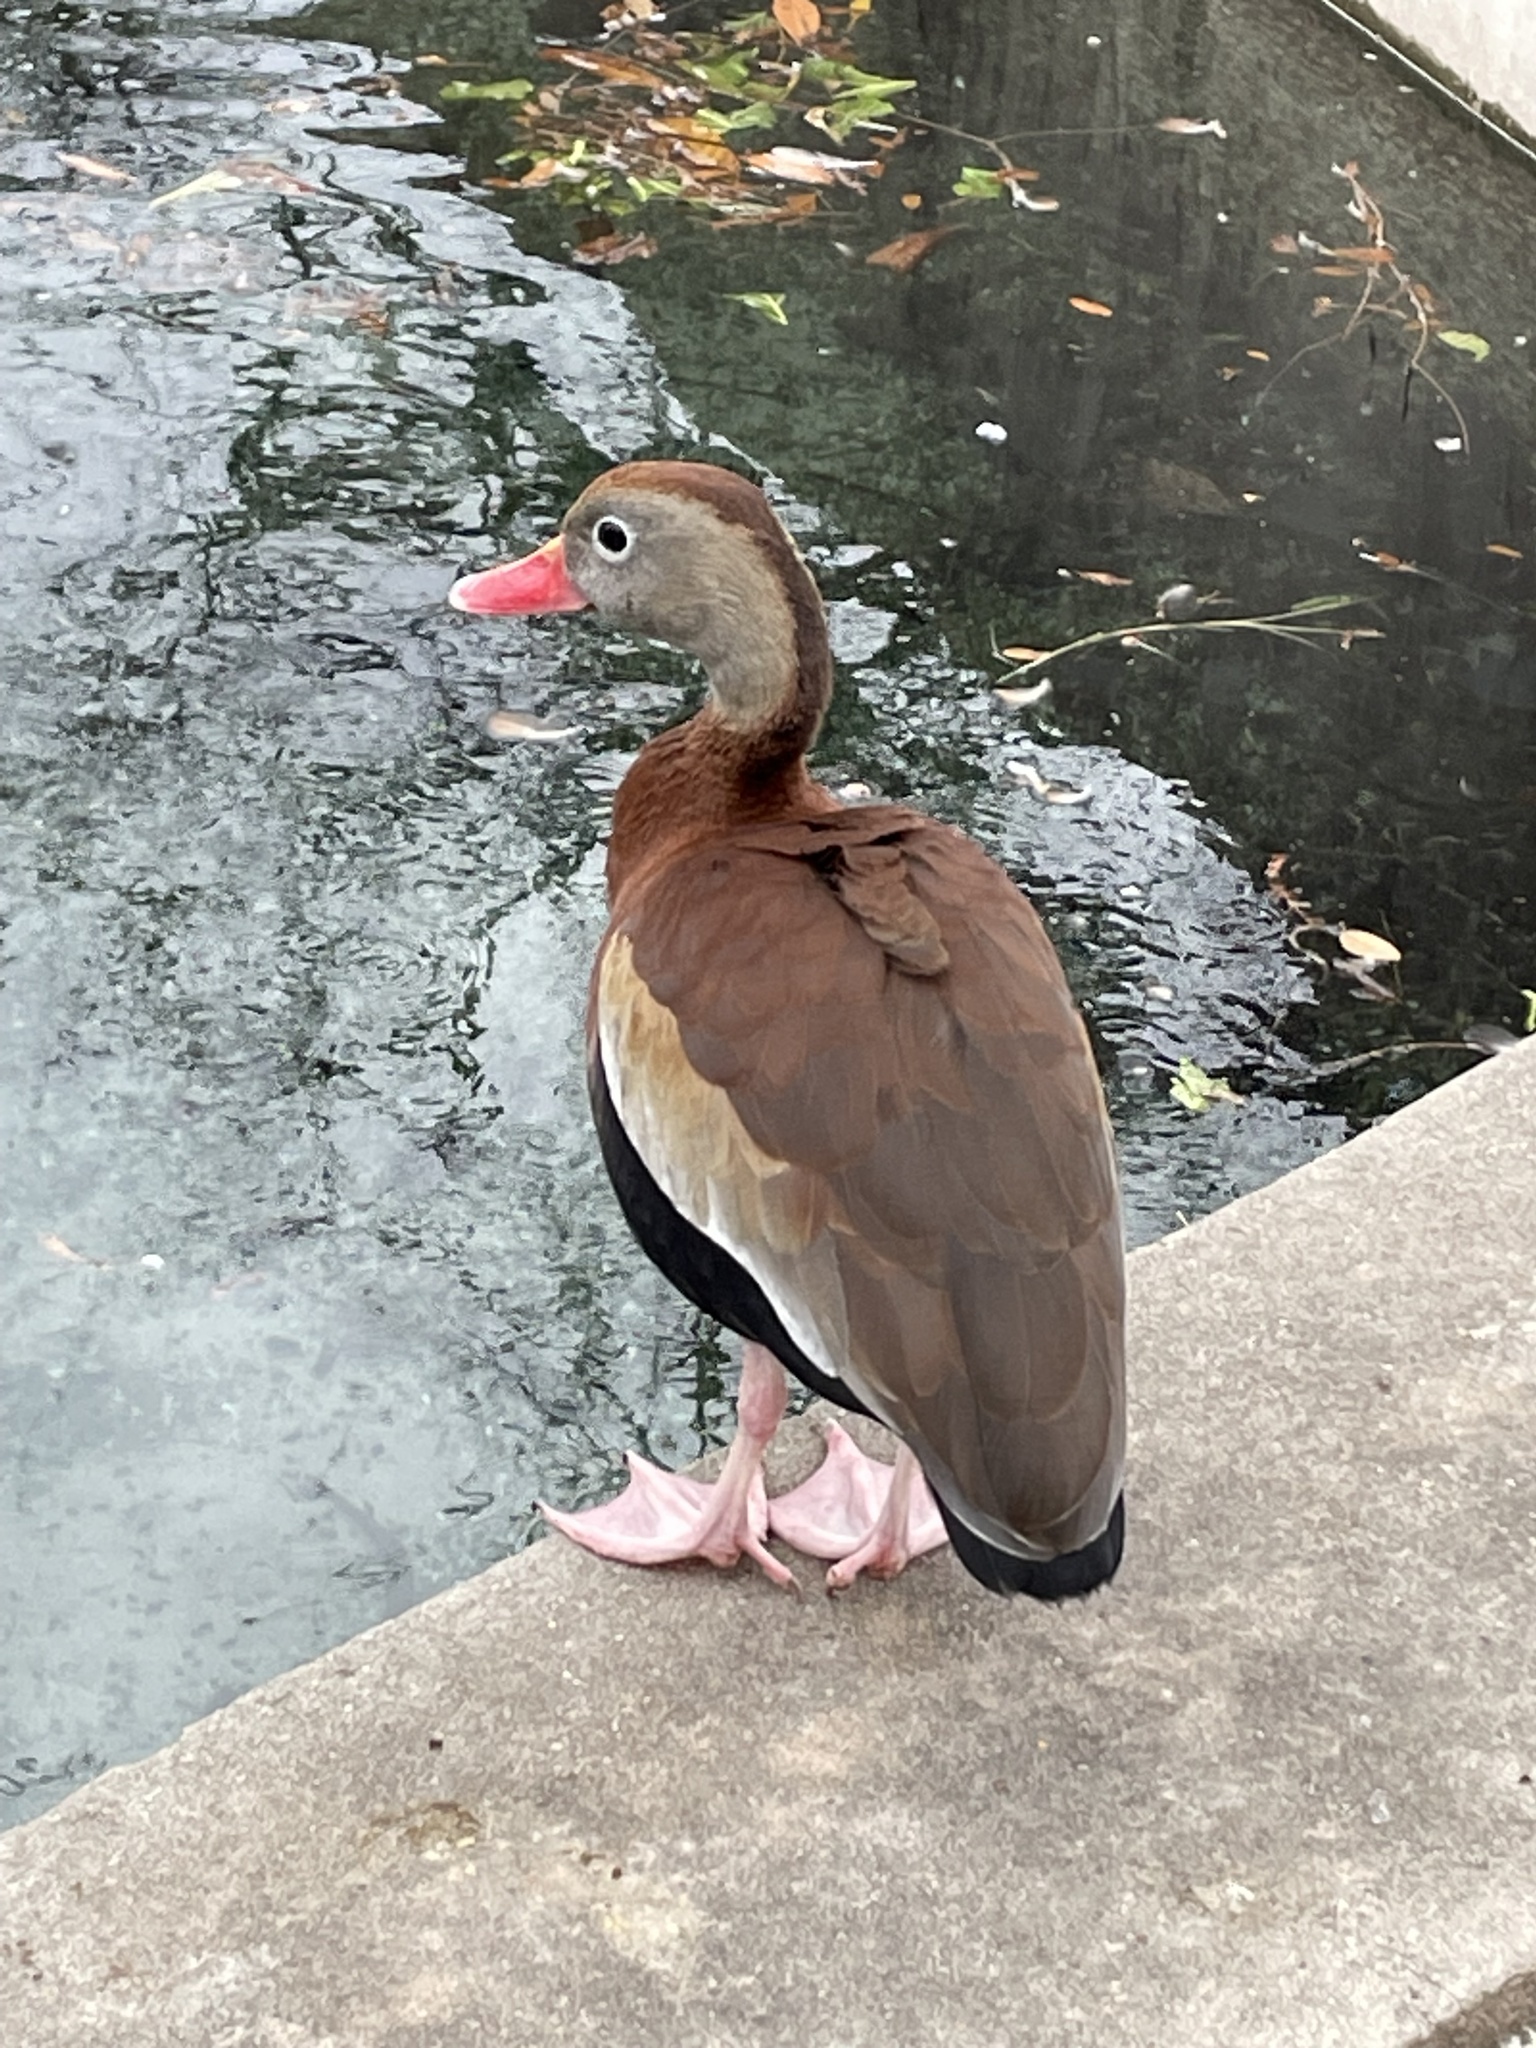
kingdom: Animalia
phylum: Chordata
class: Aves
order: Anseriformes
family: Anatidae
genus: Dendrocygna
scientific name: Dendrocygna autumnalis
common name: Black-bellied whistling duck
